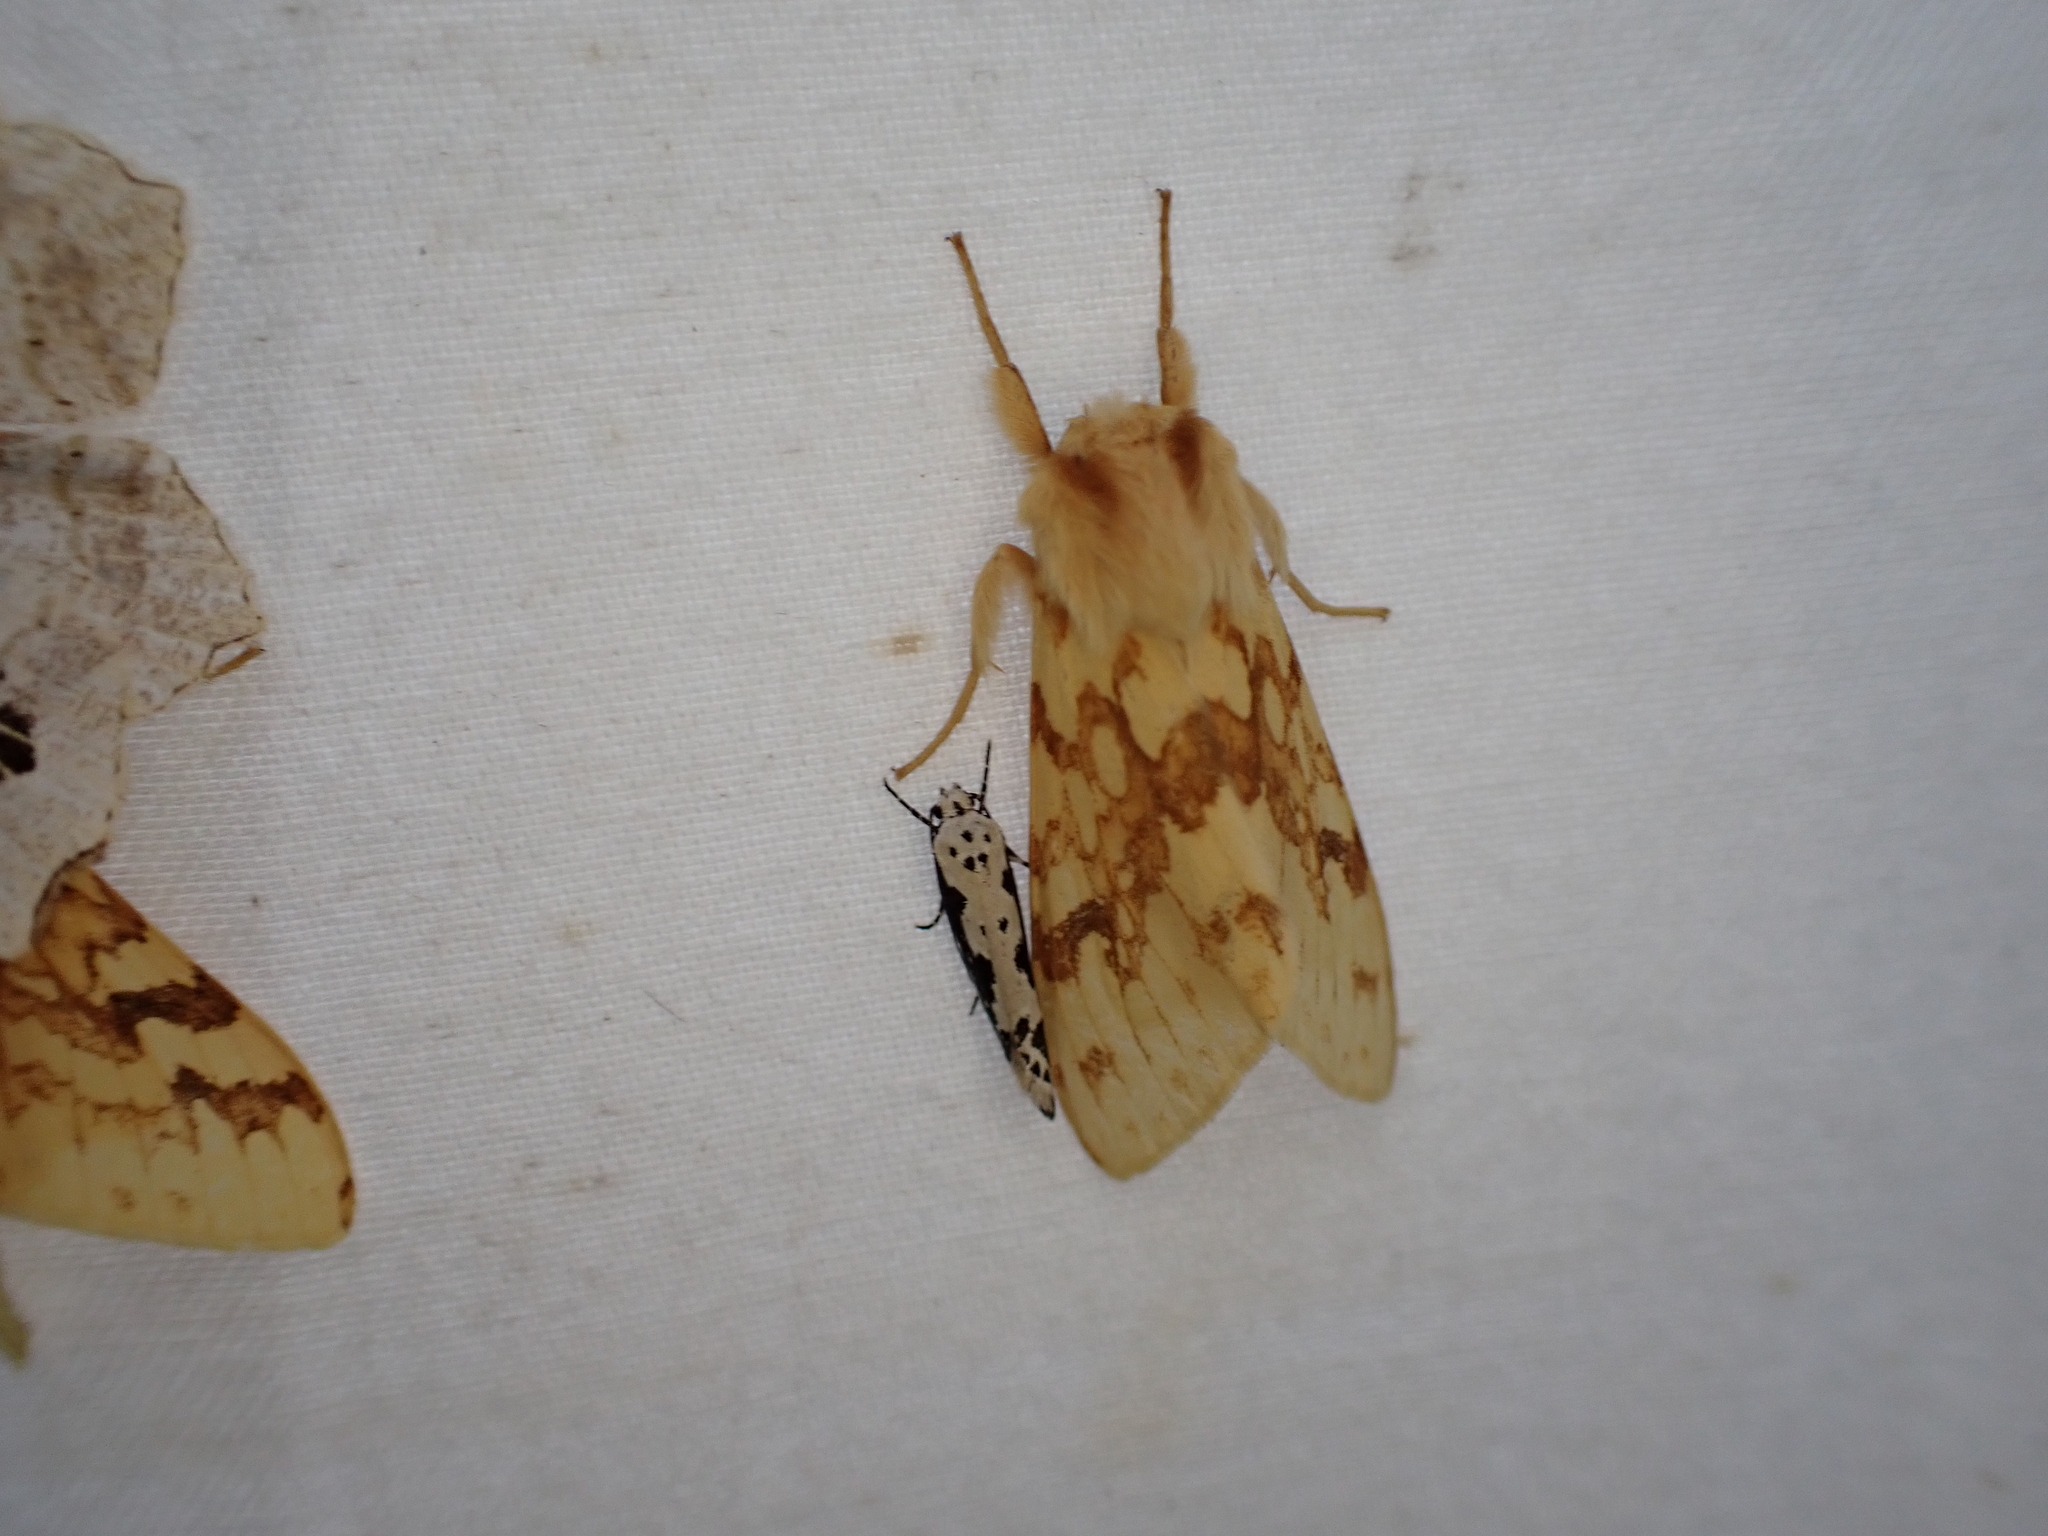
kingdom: Animalia
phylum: Arthropoda
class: Insecta
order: Lepidoptera
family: Erebidae
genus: Lophocampa
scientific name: Lophocampa maculata
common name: Spotted tussock moth
